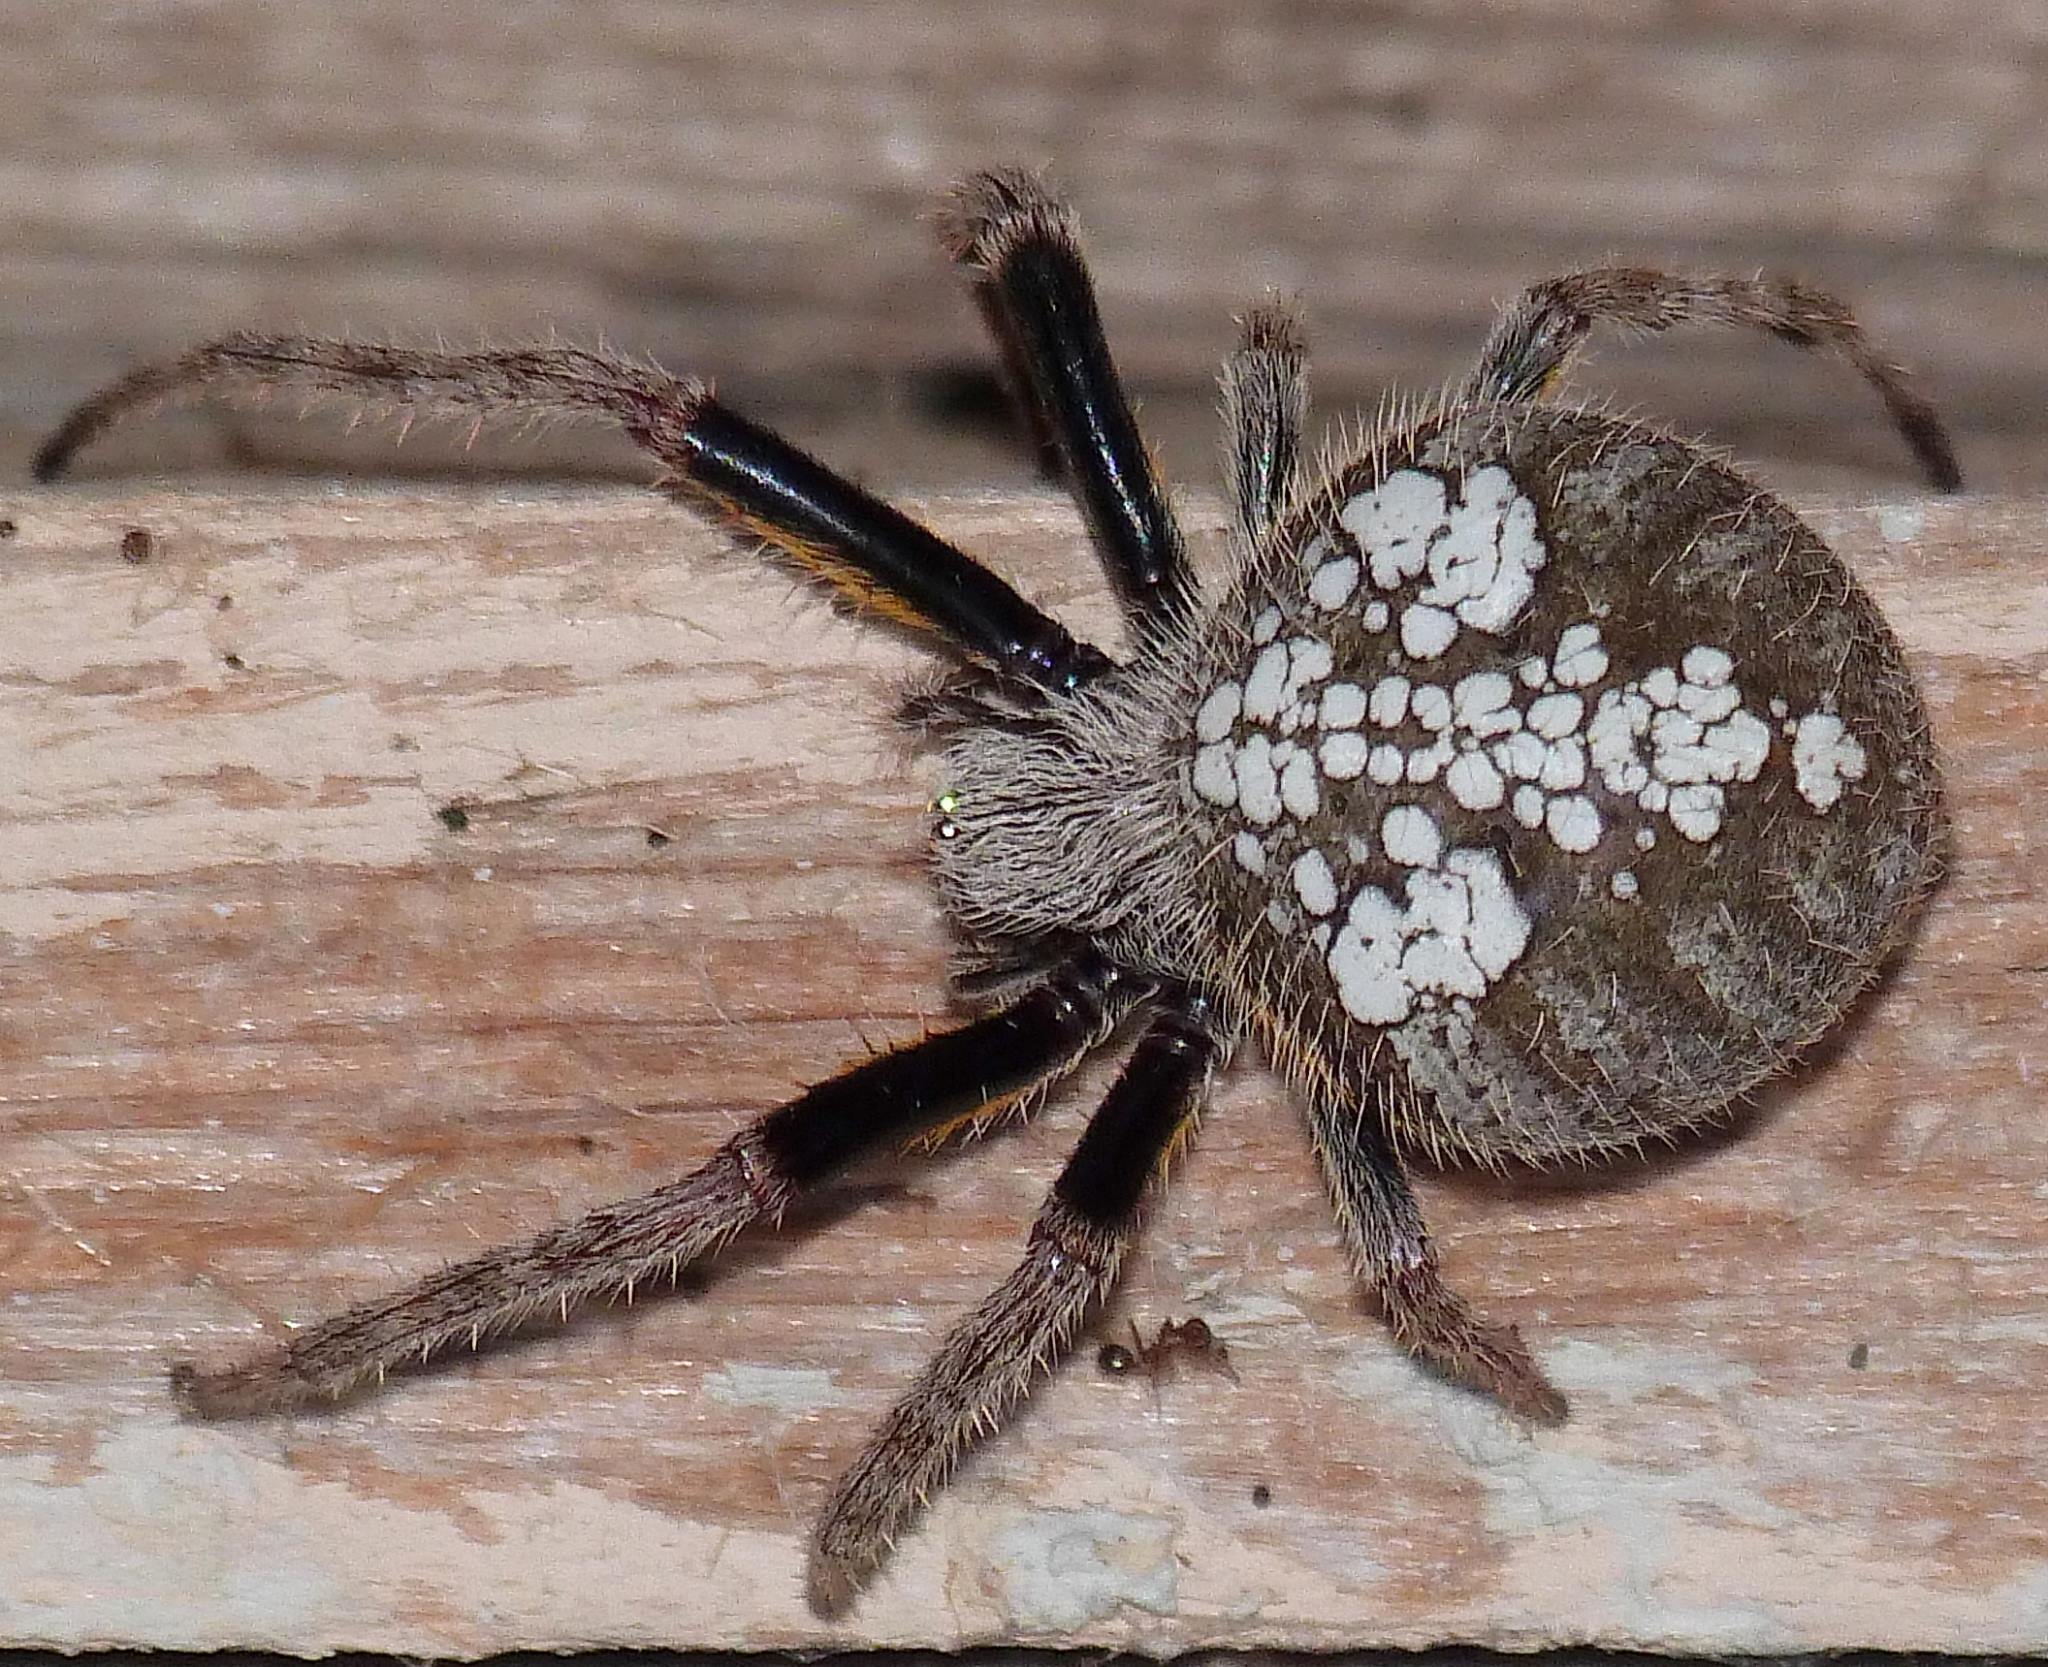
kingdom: Animalia
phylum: Arthropoda
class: Arachnida
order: Araneae
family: Araneidae
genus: Eriophora
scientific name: Eriophora ravilla
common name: Orb weavers
